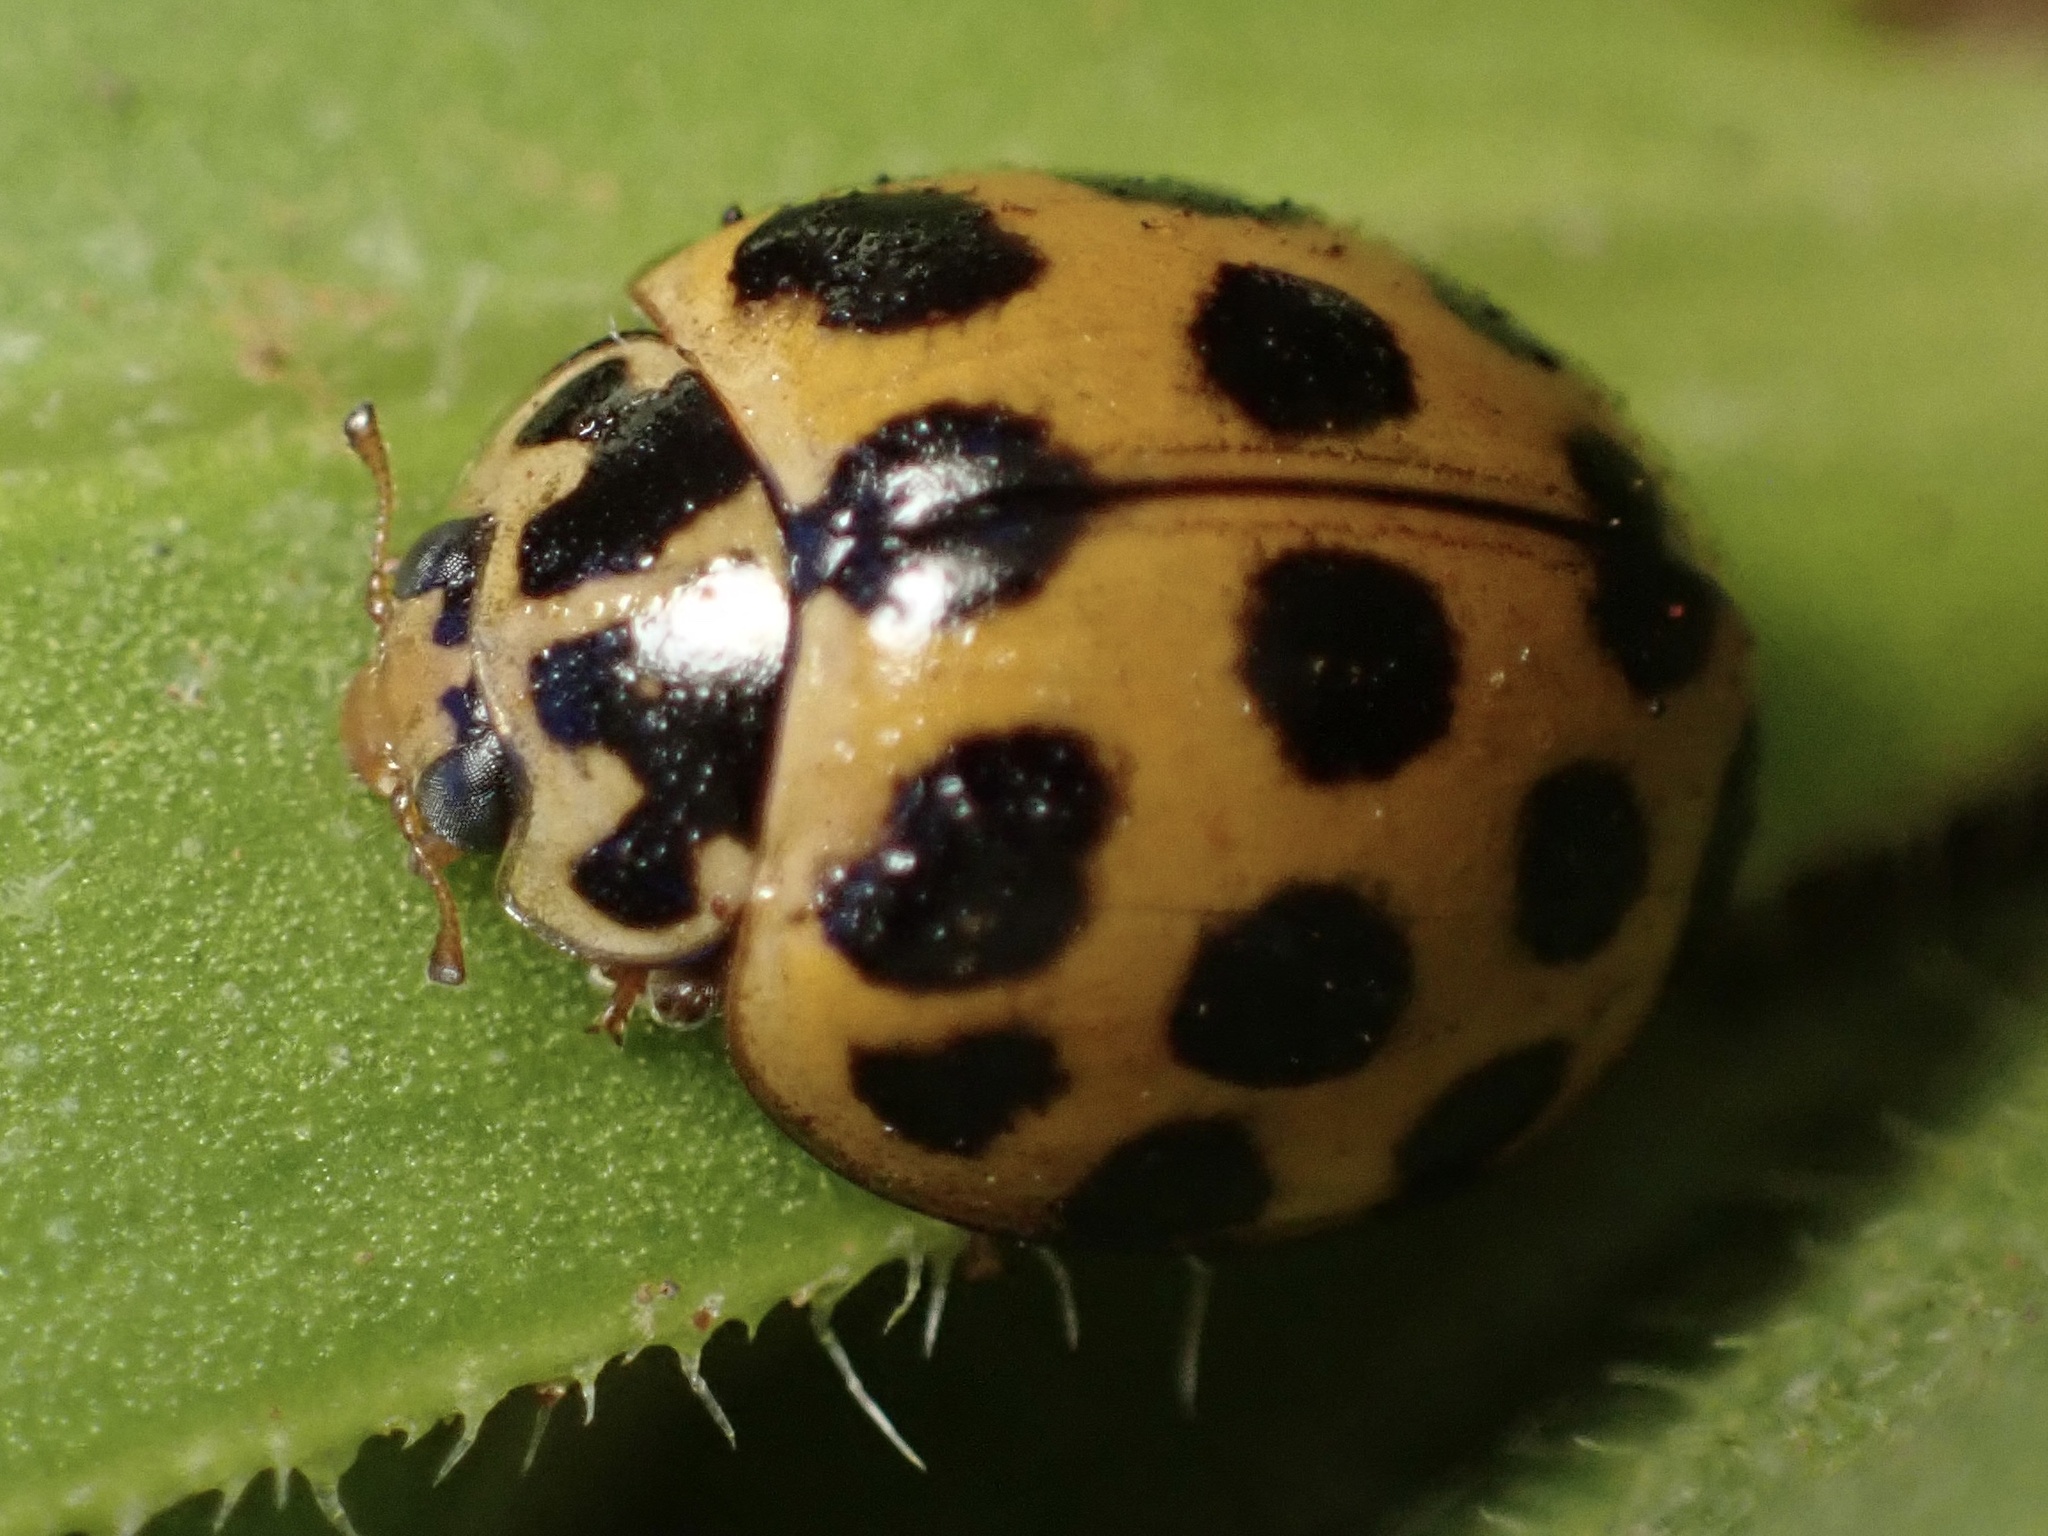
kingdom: Animalia
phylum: Arthropoda
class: Insecta
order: Coleoptera
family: Coccinellidae
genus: Harmonia
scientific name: Harmonia conformis
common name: Common spotted ladybird beetle
